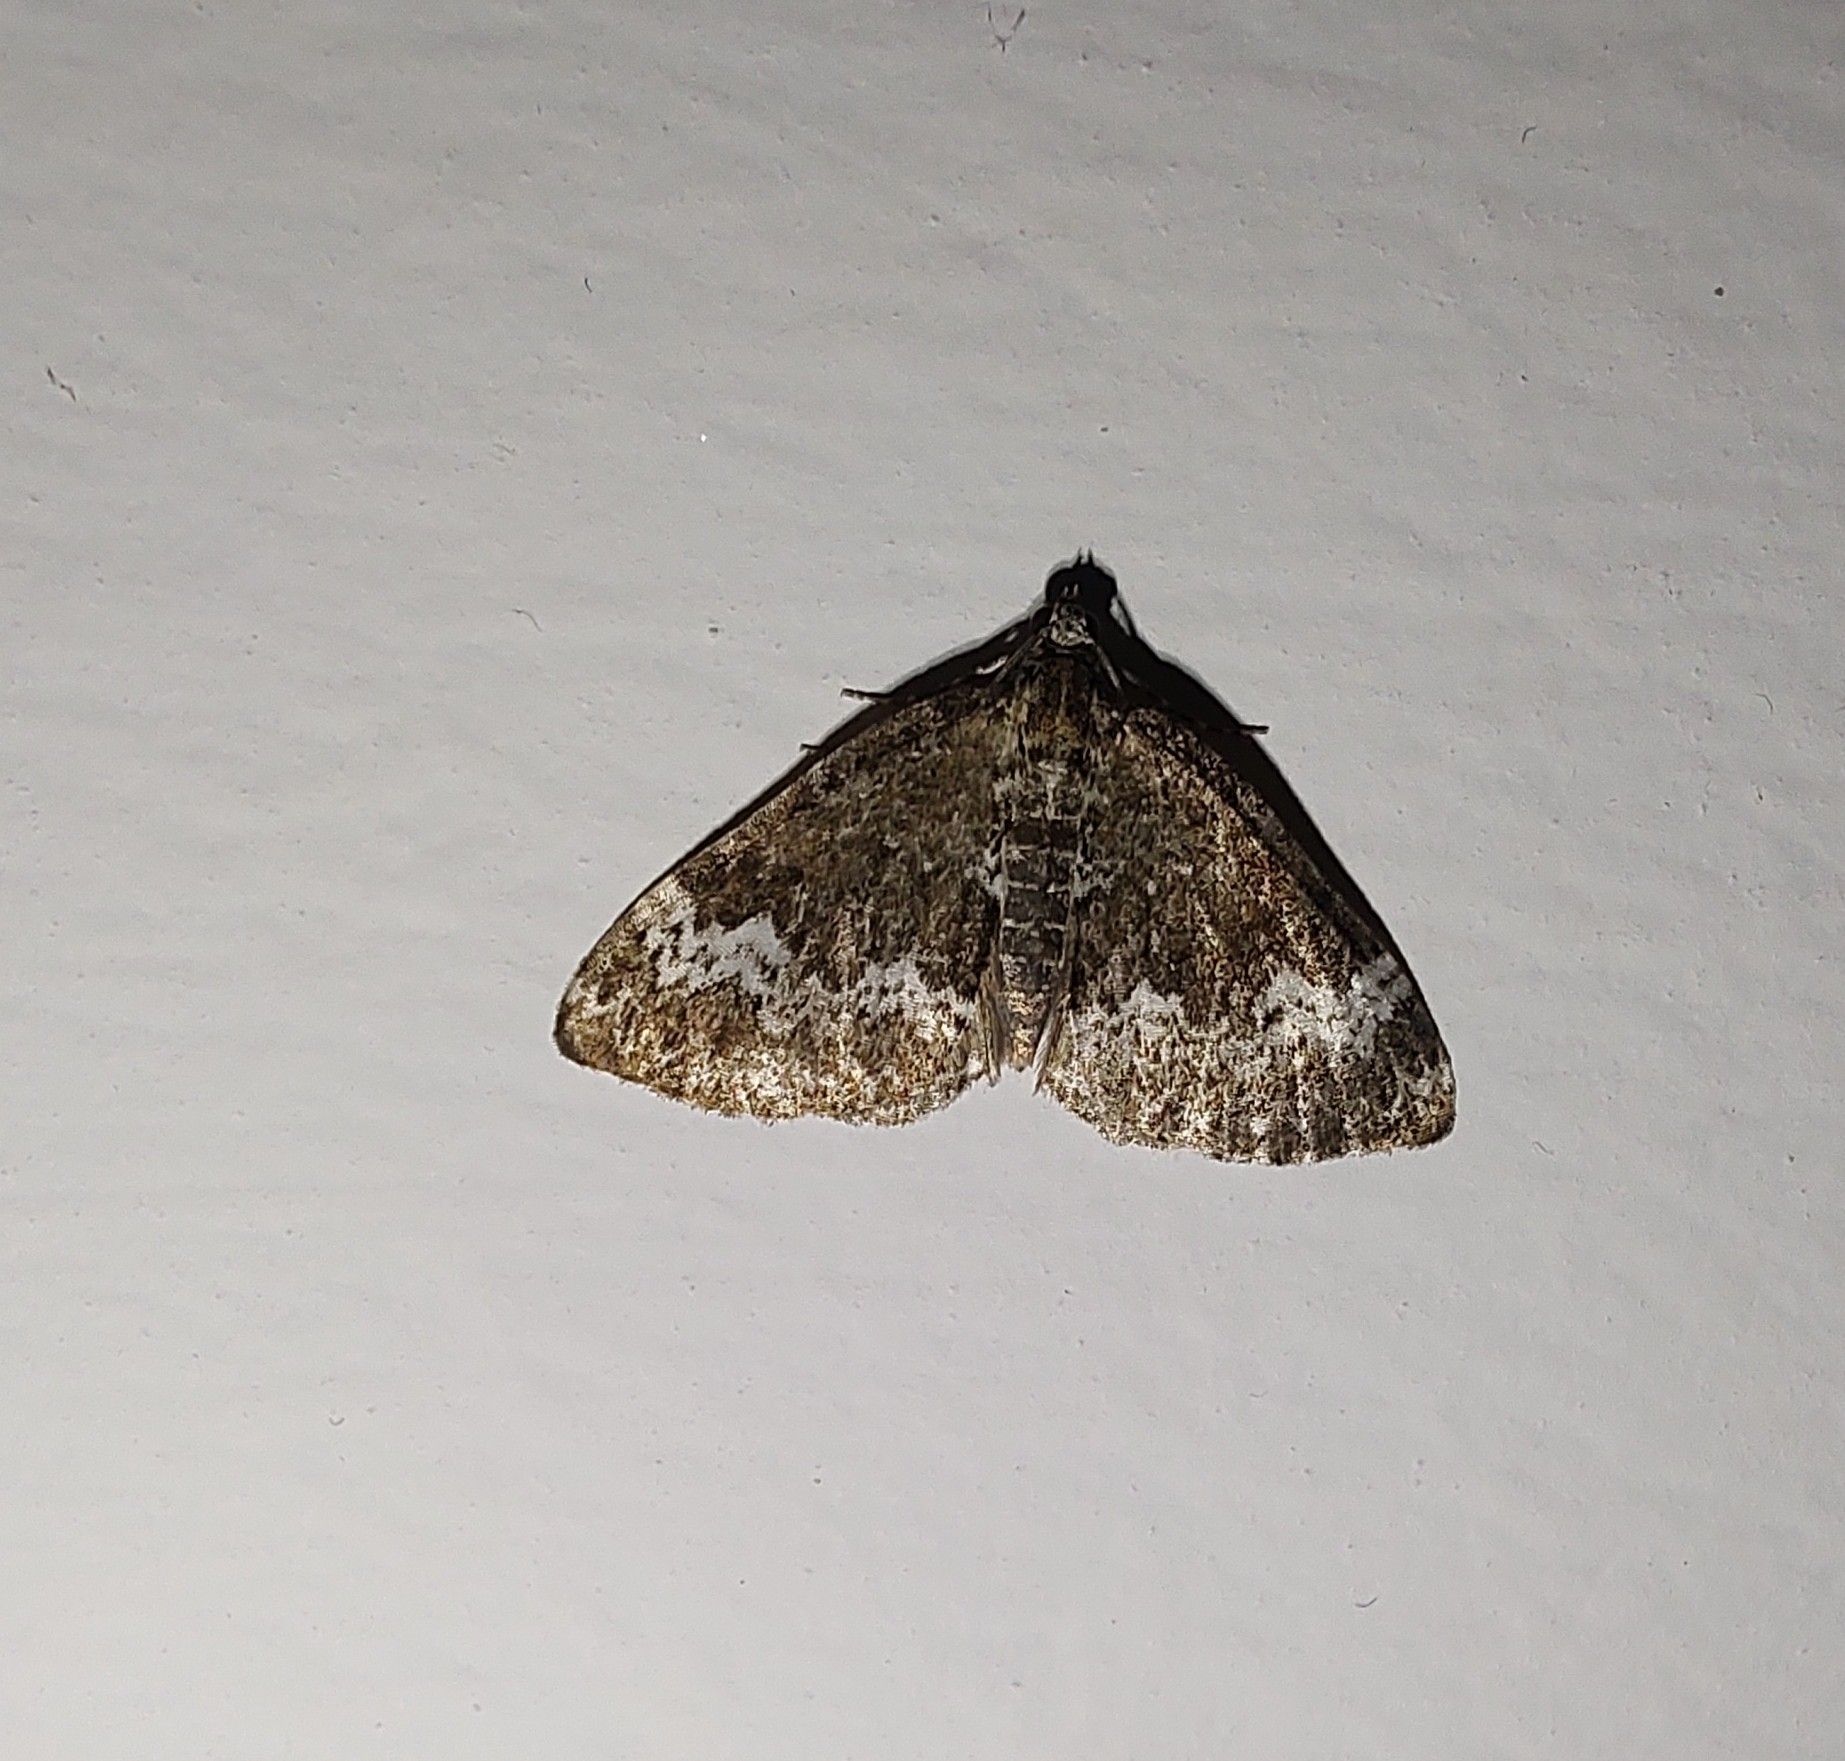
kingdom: Animalia
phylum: Arthropoda
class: Insecta
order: Lepidoptera
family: Geometridae
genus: Perizoma
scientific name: Perizoma alchemillata
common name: Small rivulet
